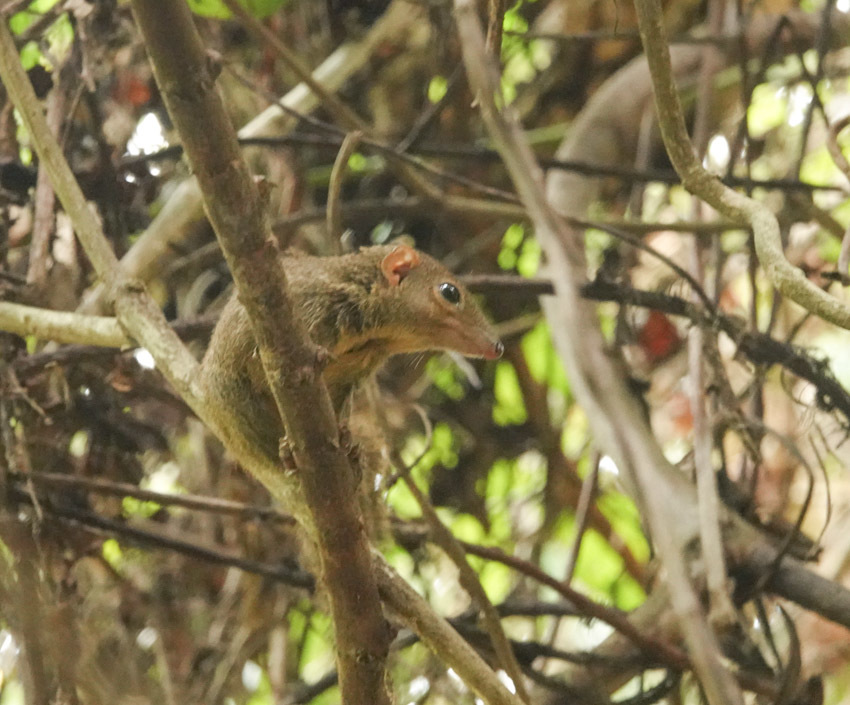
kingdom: Animalia
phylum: Chordata
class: Mammalia
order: Scandentia
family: Tupaiidae
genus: Tupaia
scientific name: Tupaia belangeri
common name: Northern treeshrew
